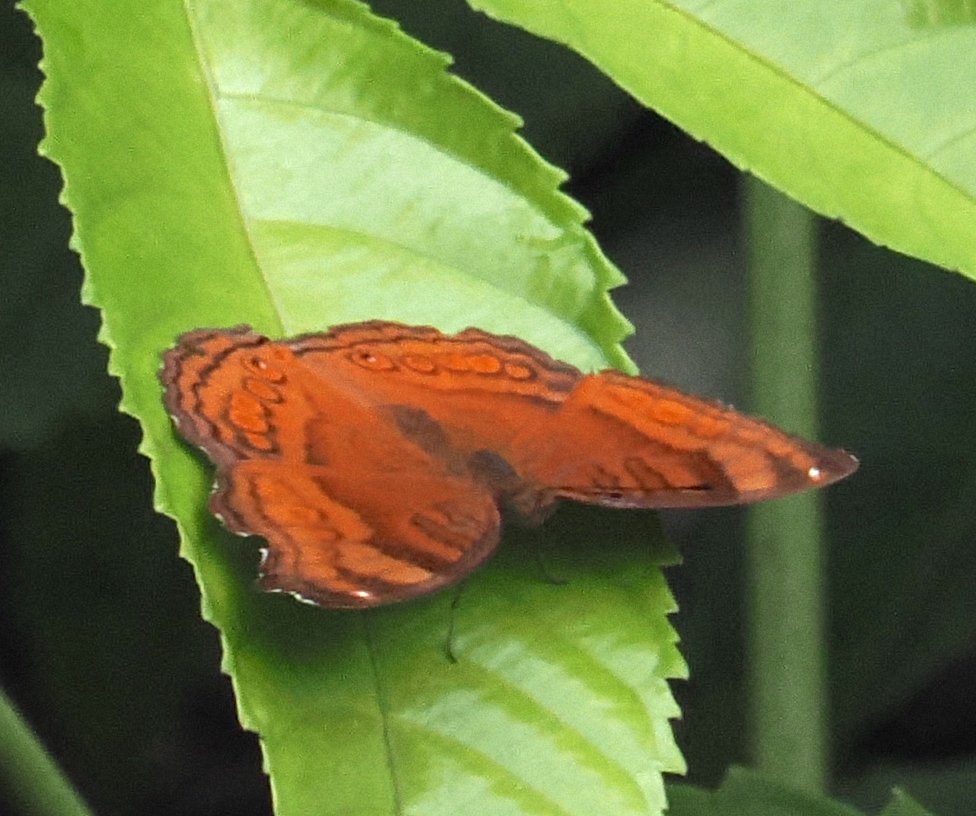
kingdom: Animalia
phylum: Arthropoda
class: Insecta
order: Lepidoptera
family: Nymphalidae
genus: Junonia
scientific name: Junonia hedonia
